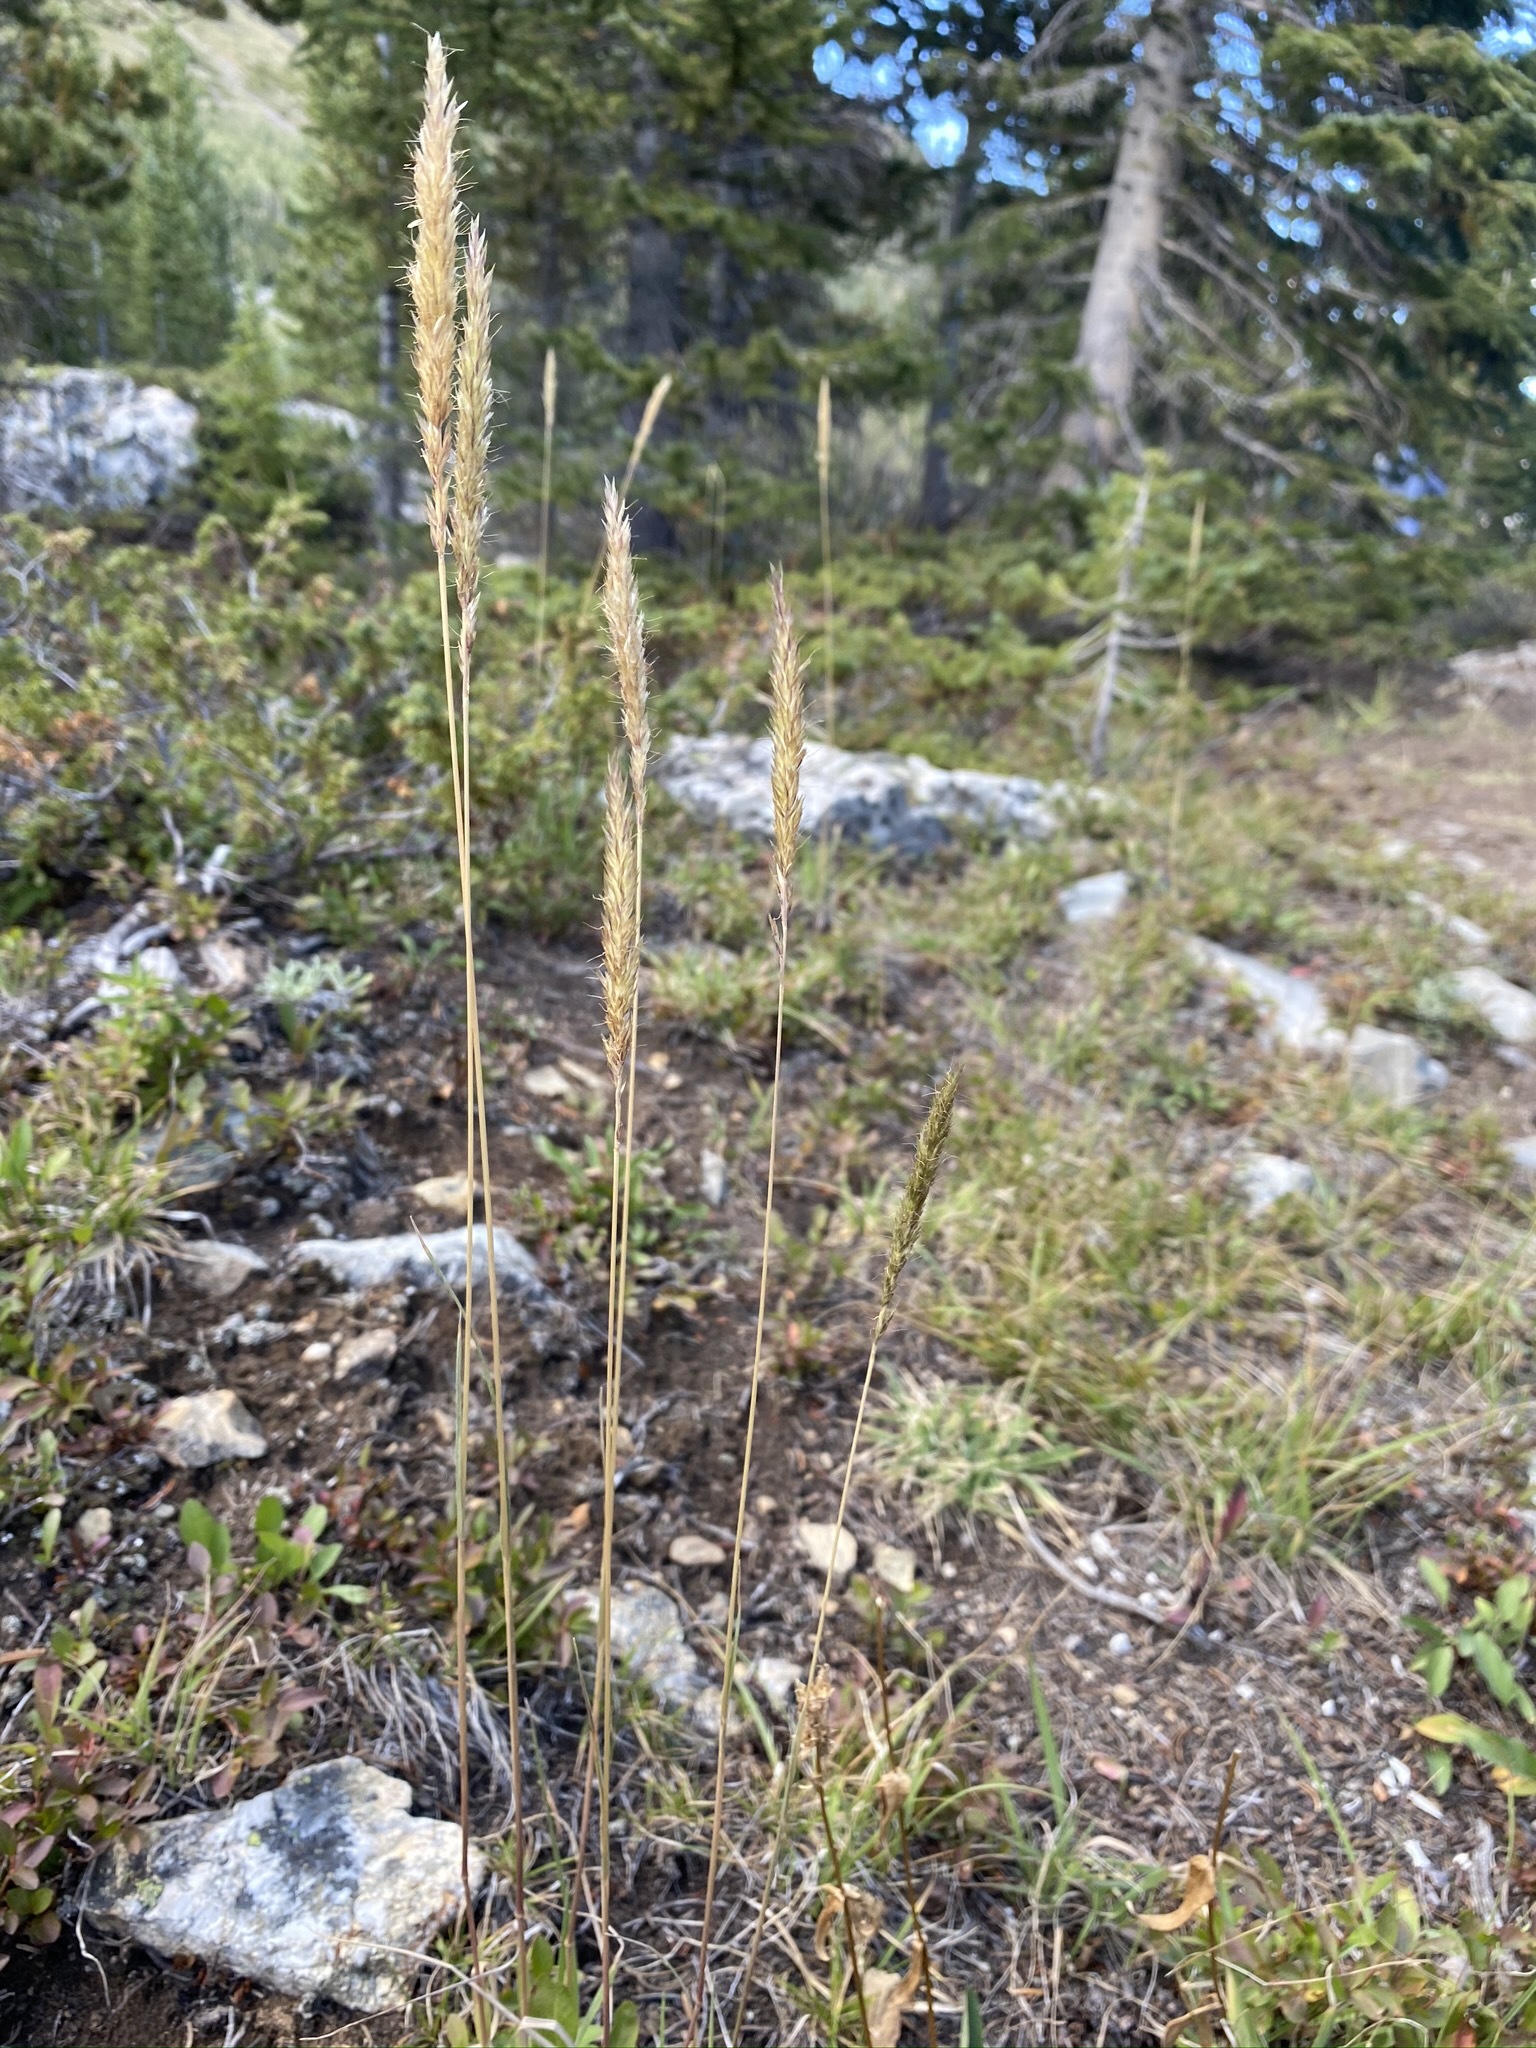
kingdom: Plantae
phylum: Tracheophyta
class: Liliopsida
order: Poales
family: Poaceae
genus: Koeleria
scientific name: Koeleria spicata
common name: Mountain trisetum
